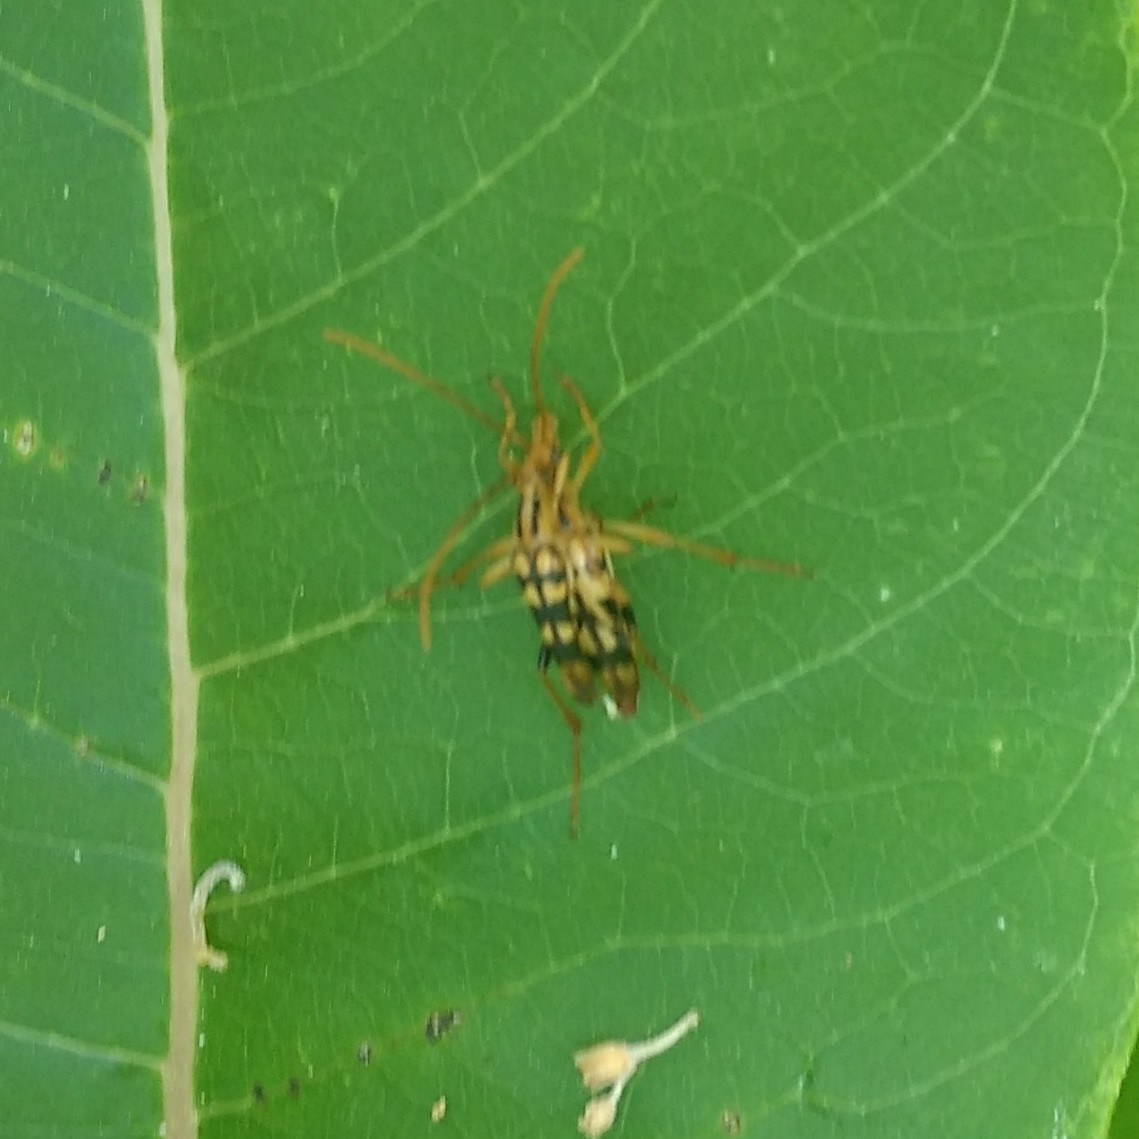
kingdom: Animalia
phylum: Arthropoda
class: Insecta
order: Coleoptera
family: Cerambycidae
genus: Strangalia
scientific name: Strangalia luteicornis
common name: Yellow-horned flower longhorn beetle
